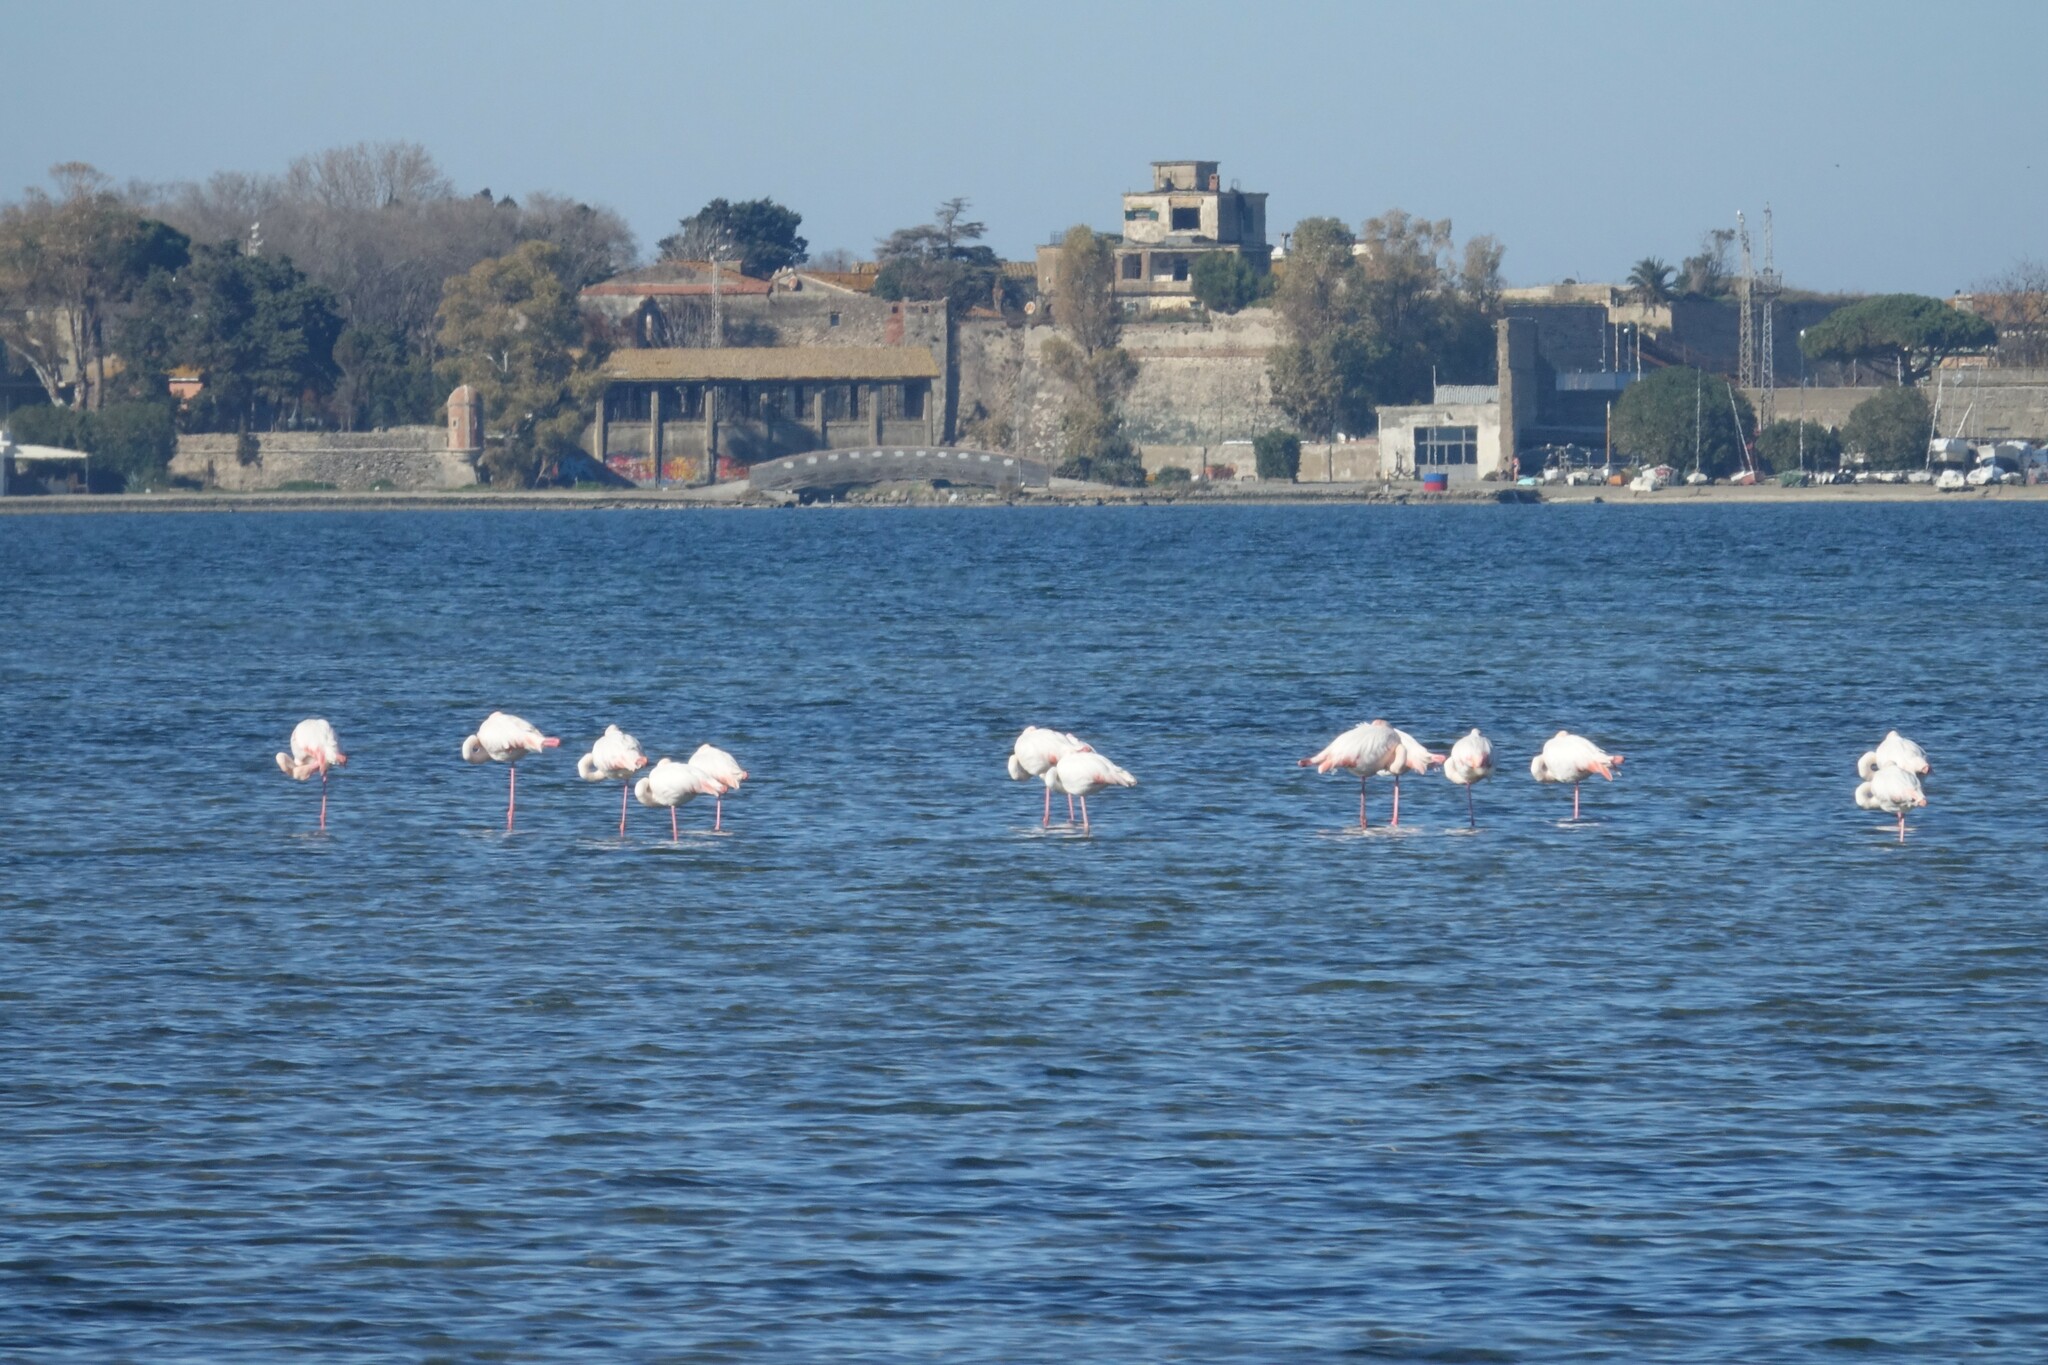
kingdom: Animalia
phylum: Chordata
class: Aves
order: Phoenicopteriformes
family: Phoenicopteridae
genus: Phoenicopterus
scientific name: Phoenicopterus roseus
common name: Greater flamingo
